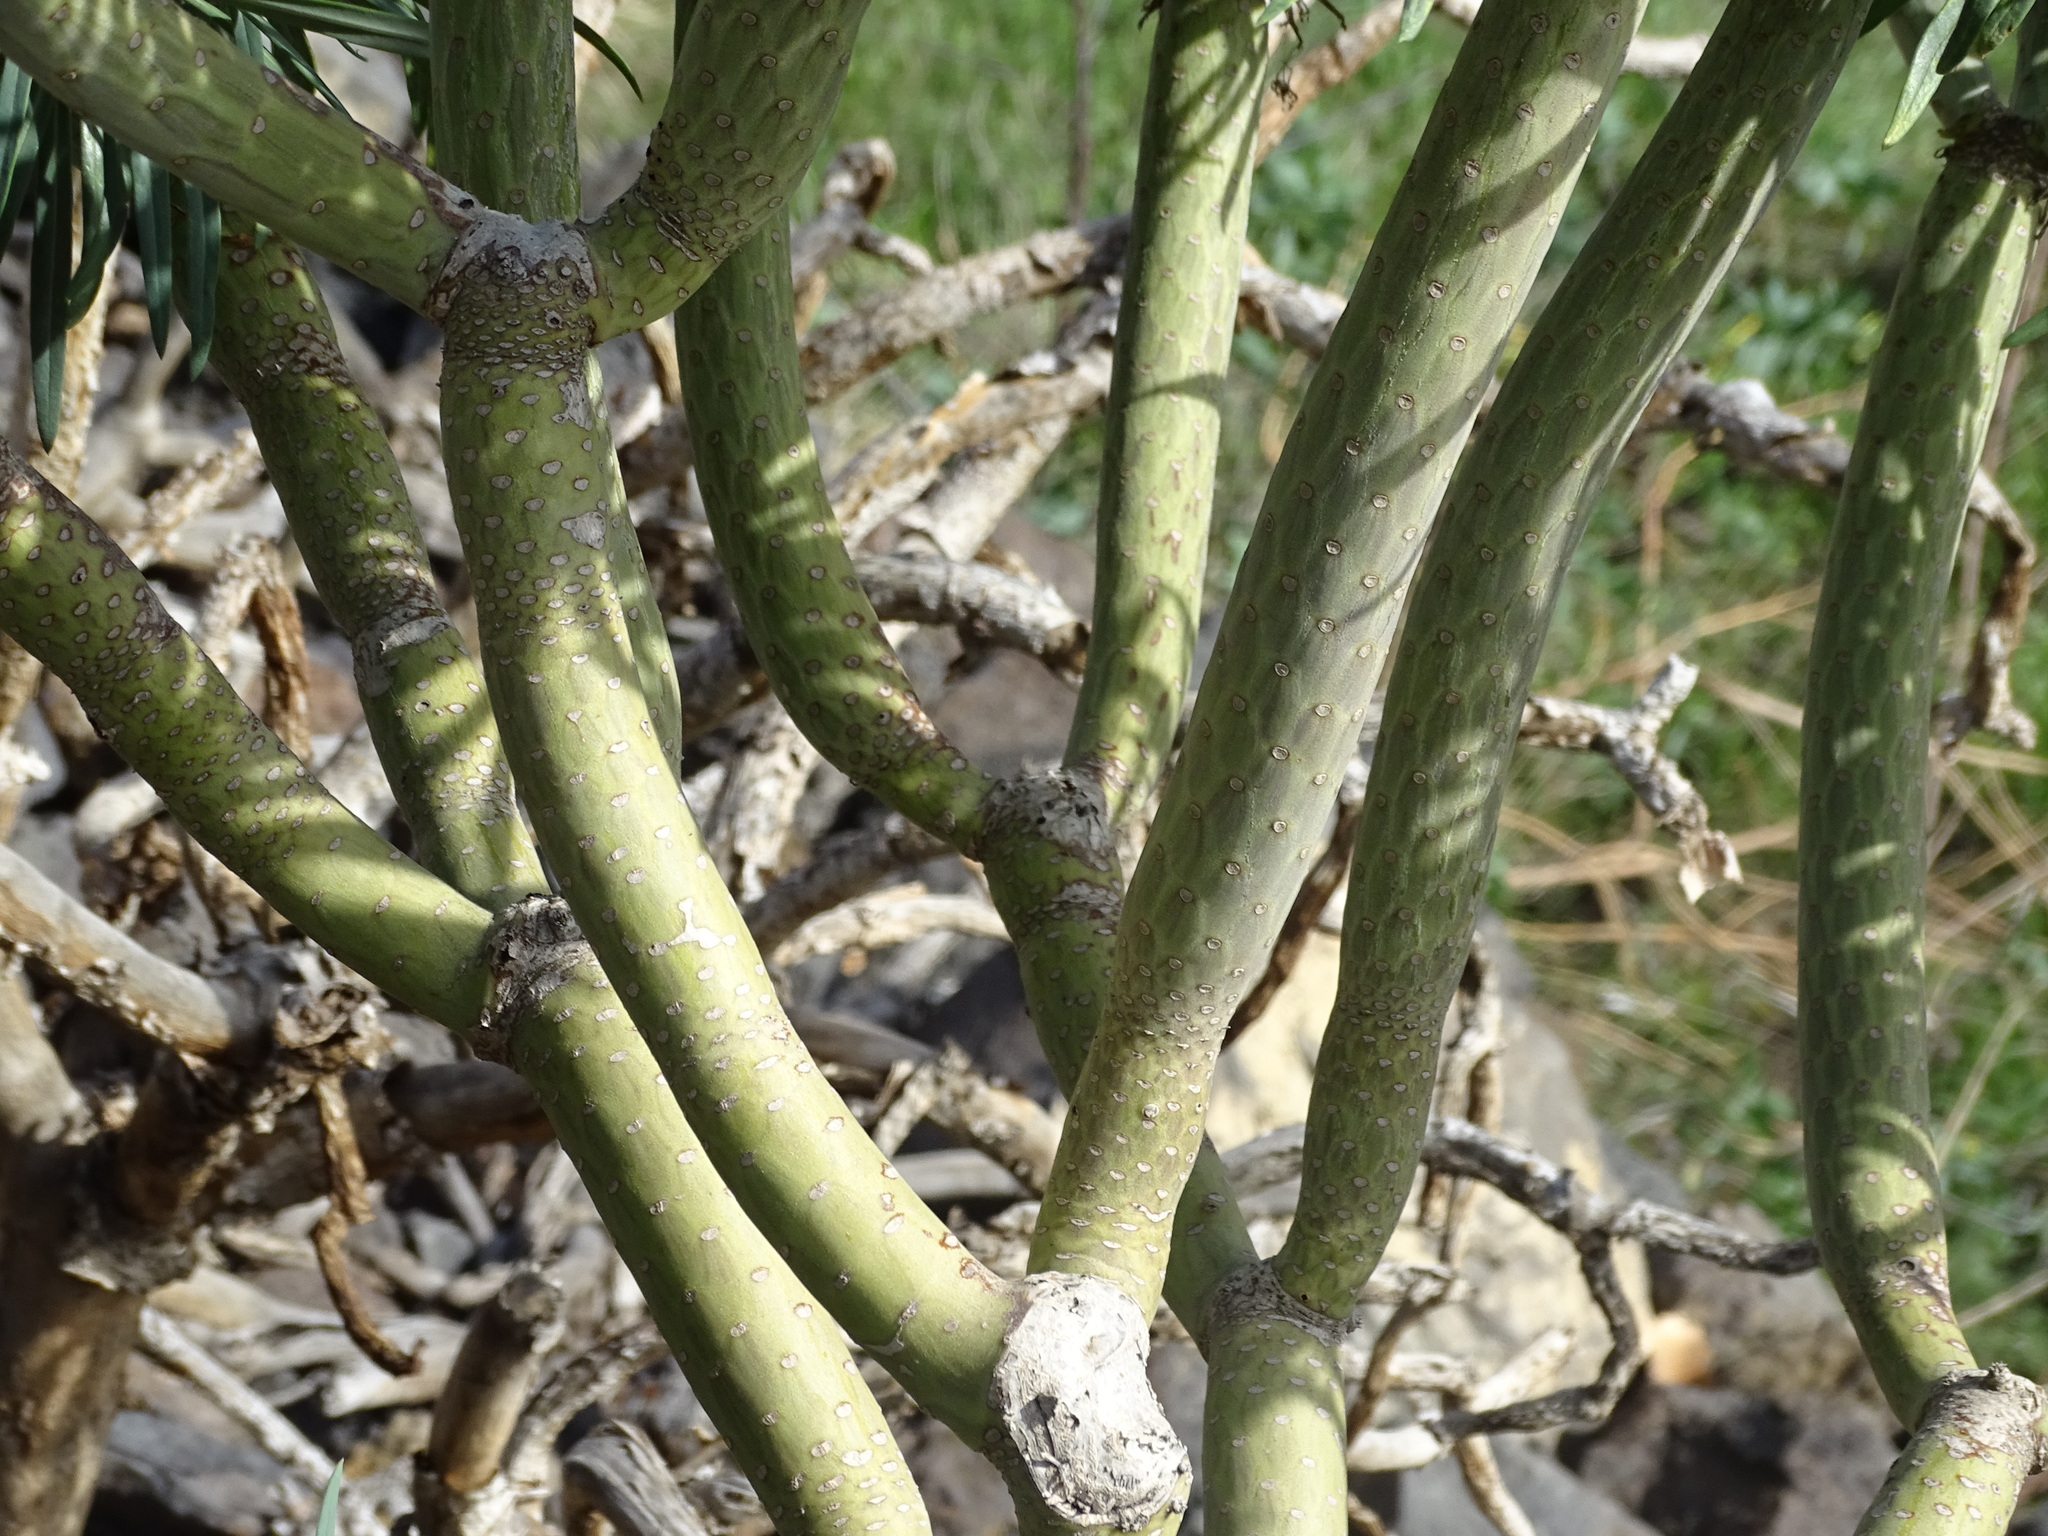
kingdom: Plantae
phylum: Tracheophyta
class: Magnoliopsida
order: Asterales
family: Asteraceae
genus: Kleinia
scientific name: Kleinia neriifolia
